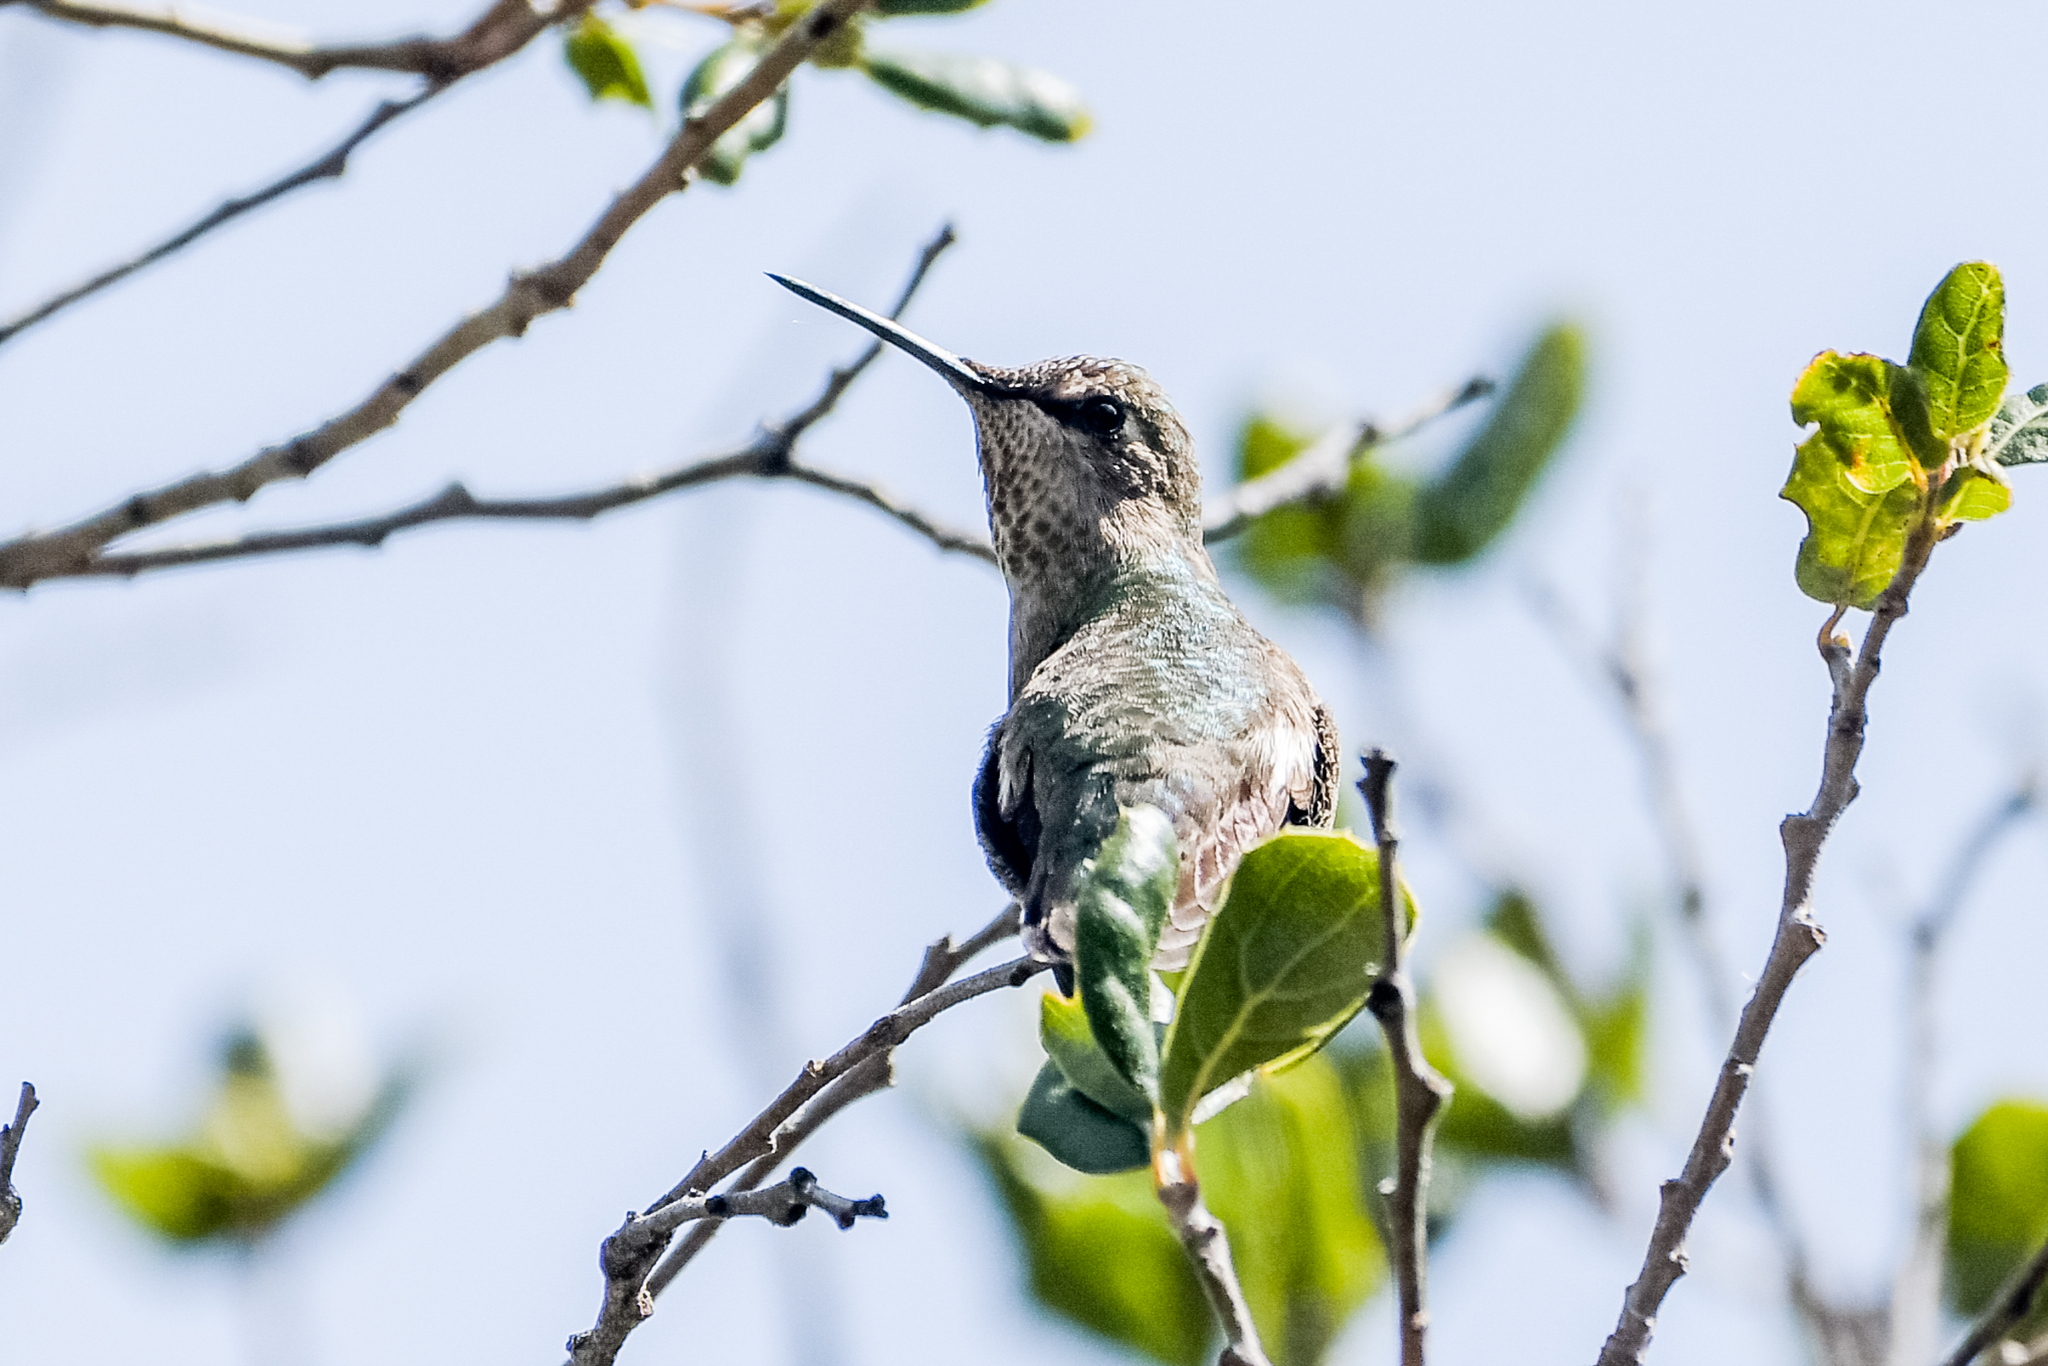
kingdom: Animalia
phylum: Chordata
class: Aves
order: Apodiformes
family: Trochilidae
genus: Calypte
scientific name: Calypte anna
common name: Anna's hummingbird
